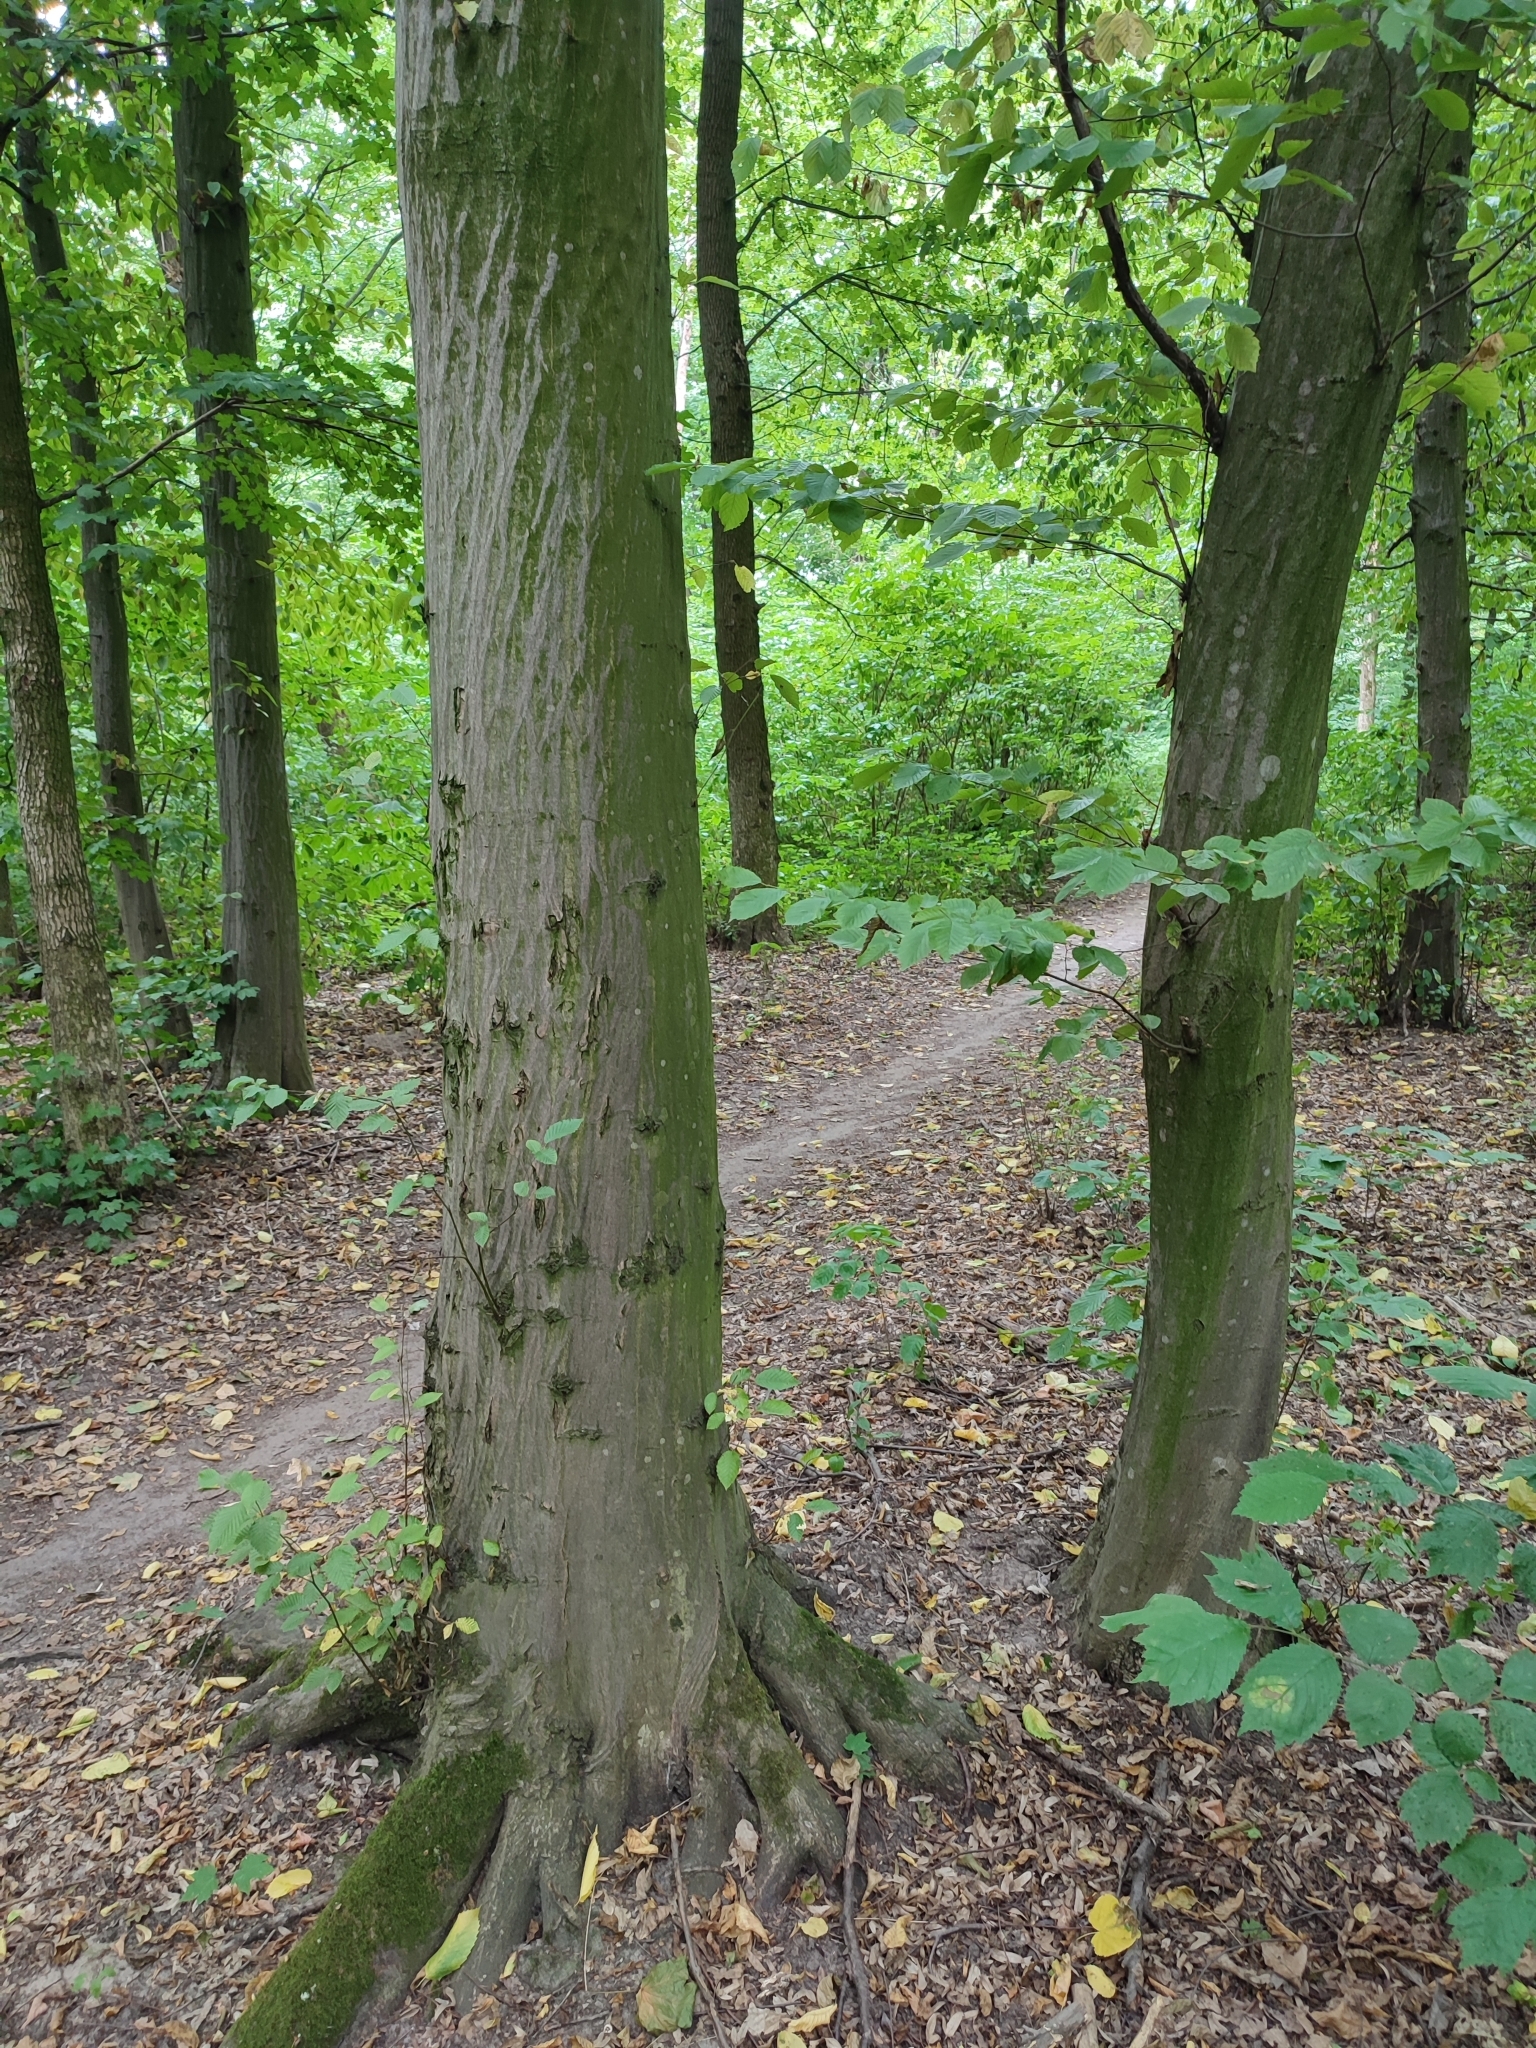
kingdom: Plantae
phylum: Tracheophyta
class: Magnoliopsida
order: Fagales
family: Betulaceae
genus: Carpinus
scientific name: Carpinus betulus
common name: Hornbeam
